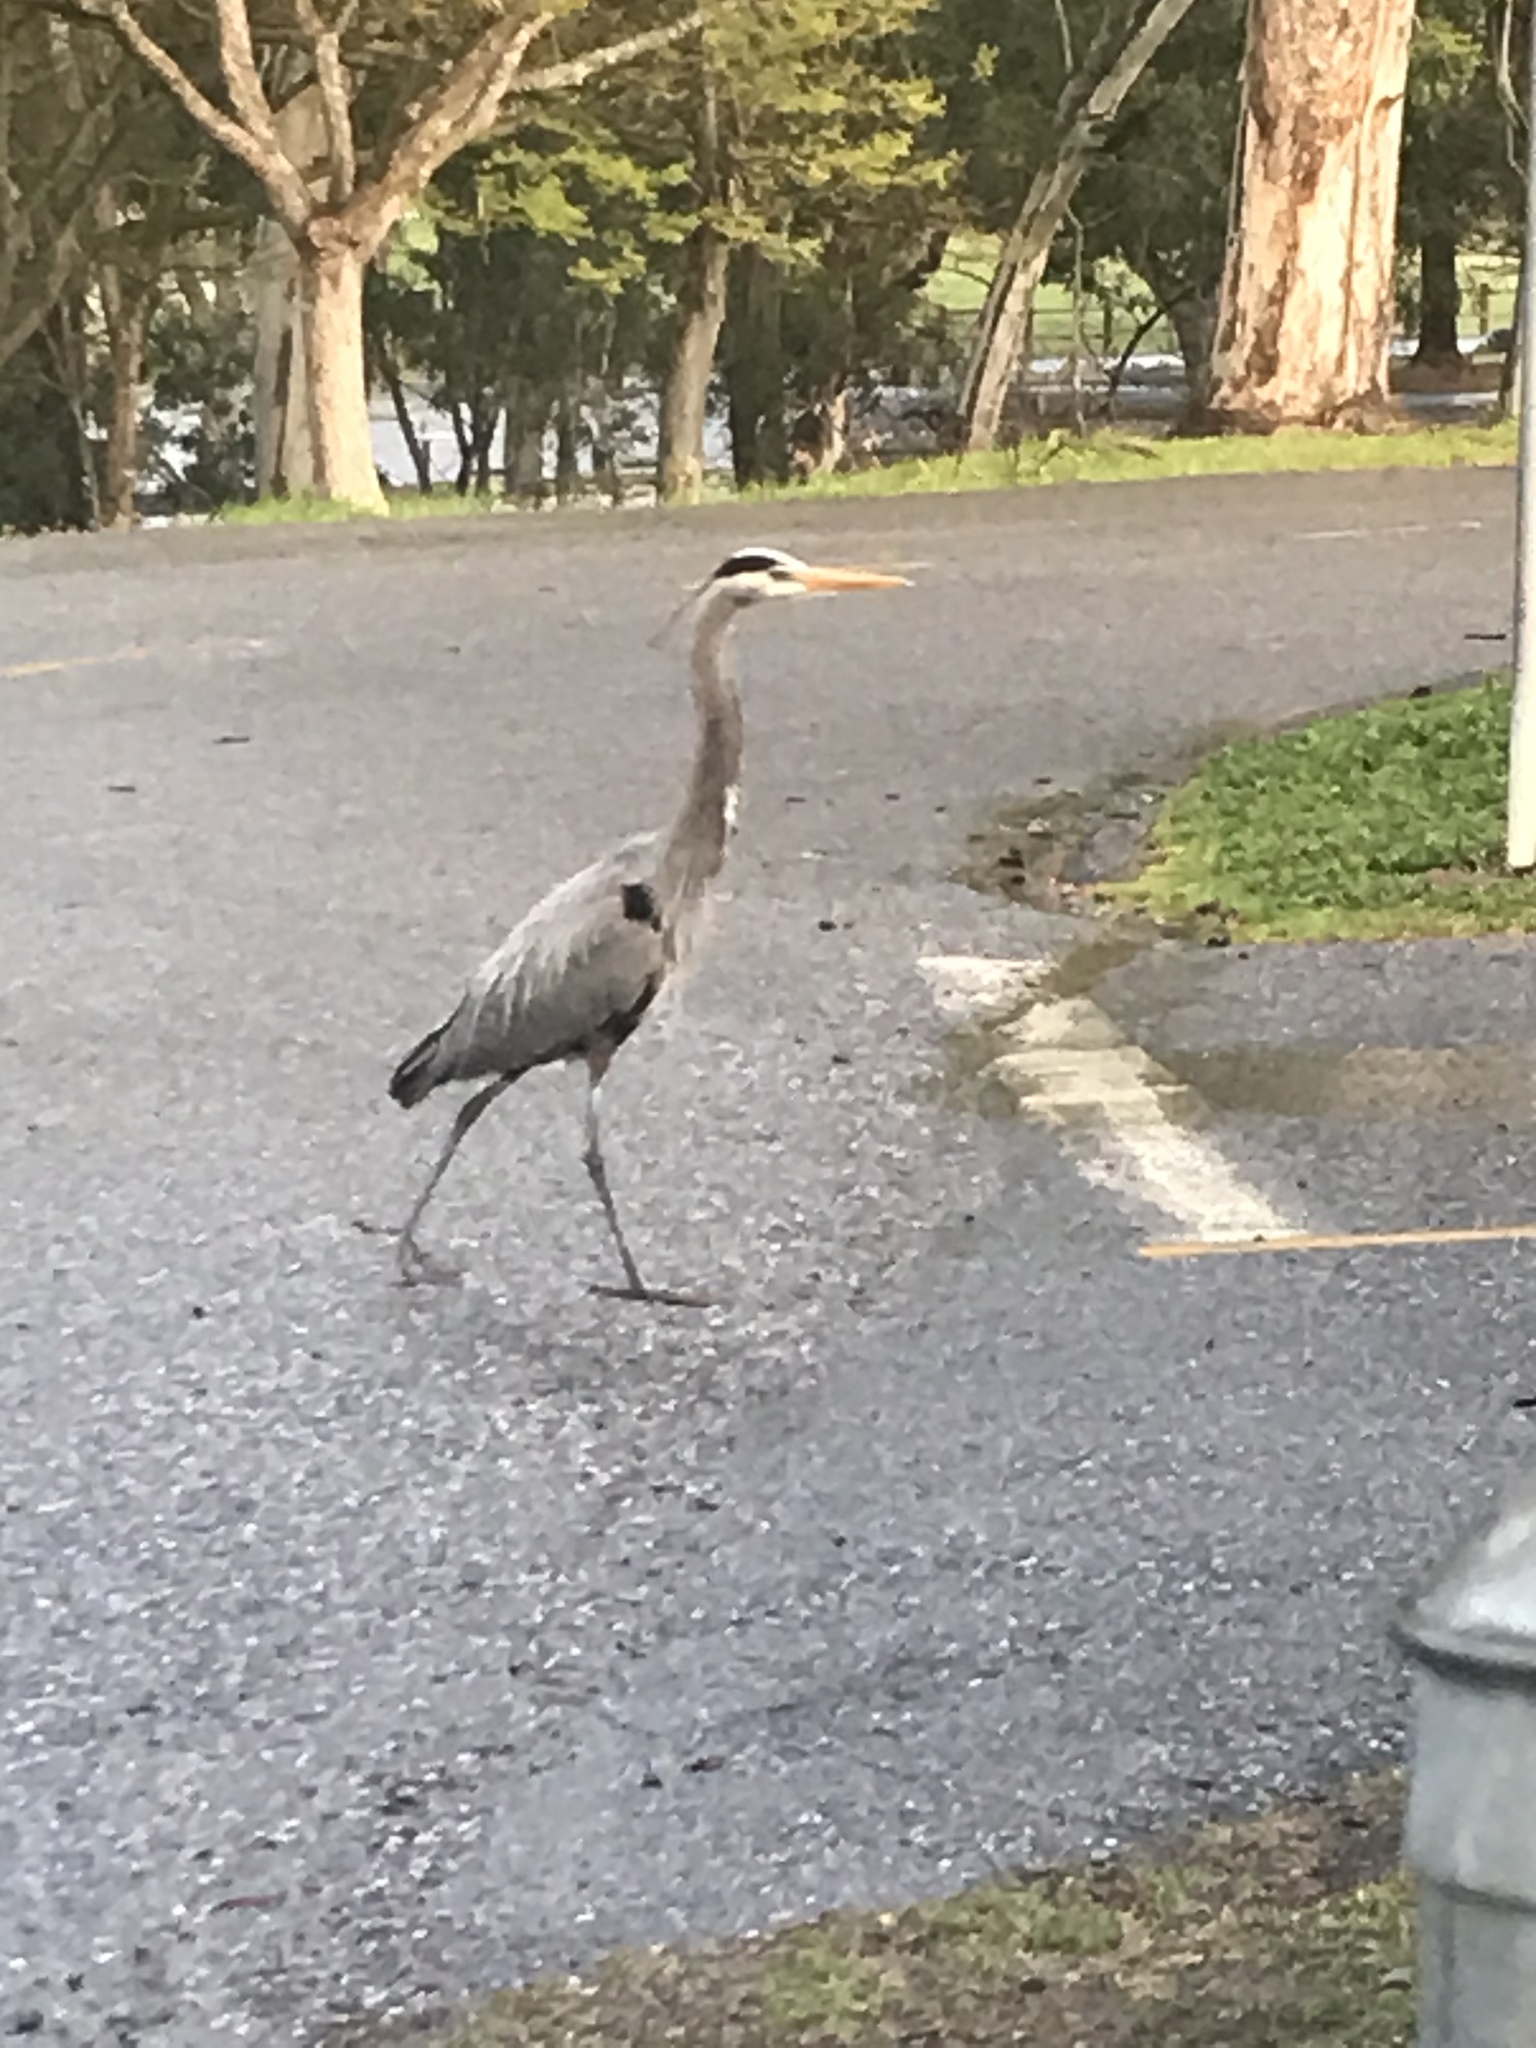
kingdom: Animalia
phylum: Chordata
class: Aves
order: Pelecaniformes
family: Ardeidae
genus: Ardea
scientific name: Ardea herodias
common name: Great blue heron
